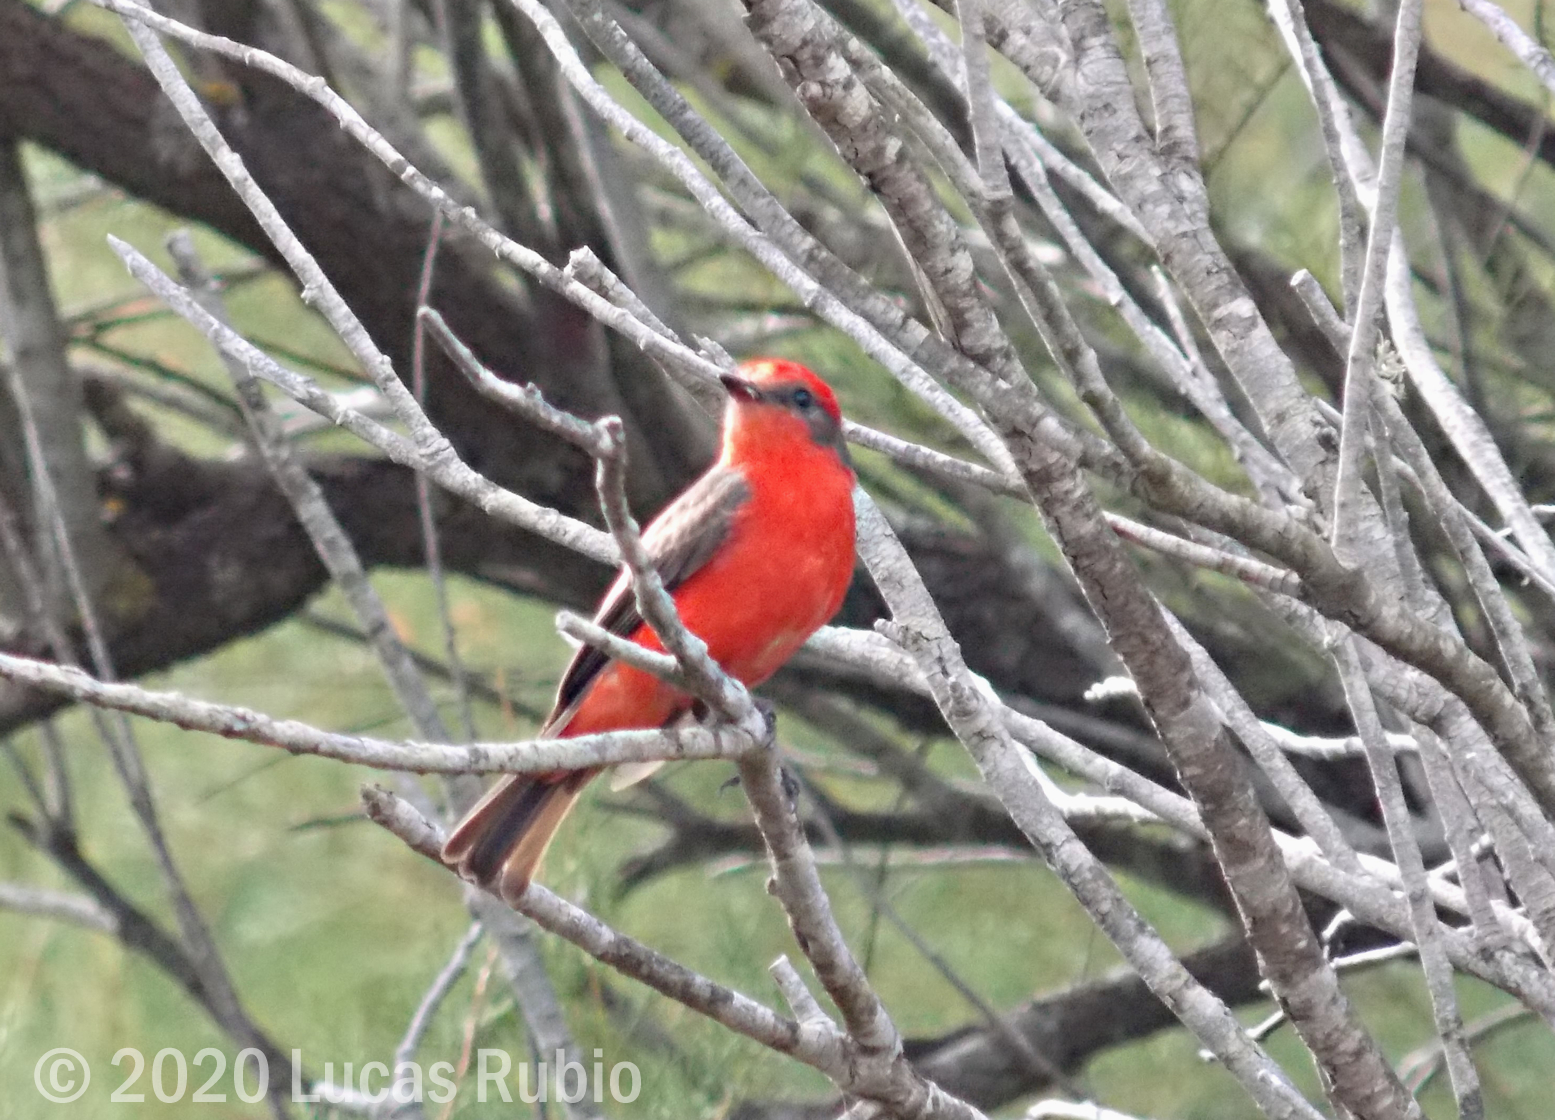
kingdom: Animalia
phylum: Chordata
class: Aves
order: Passeriformes
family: Tyrannidae
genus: Pyrocephalus
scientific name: Pyrocephalus rubinus
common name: Vermilion flycatcher
